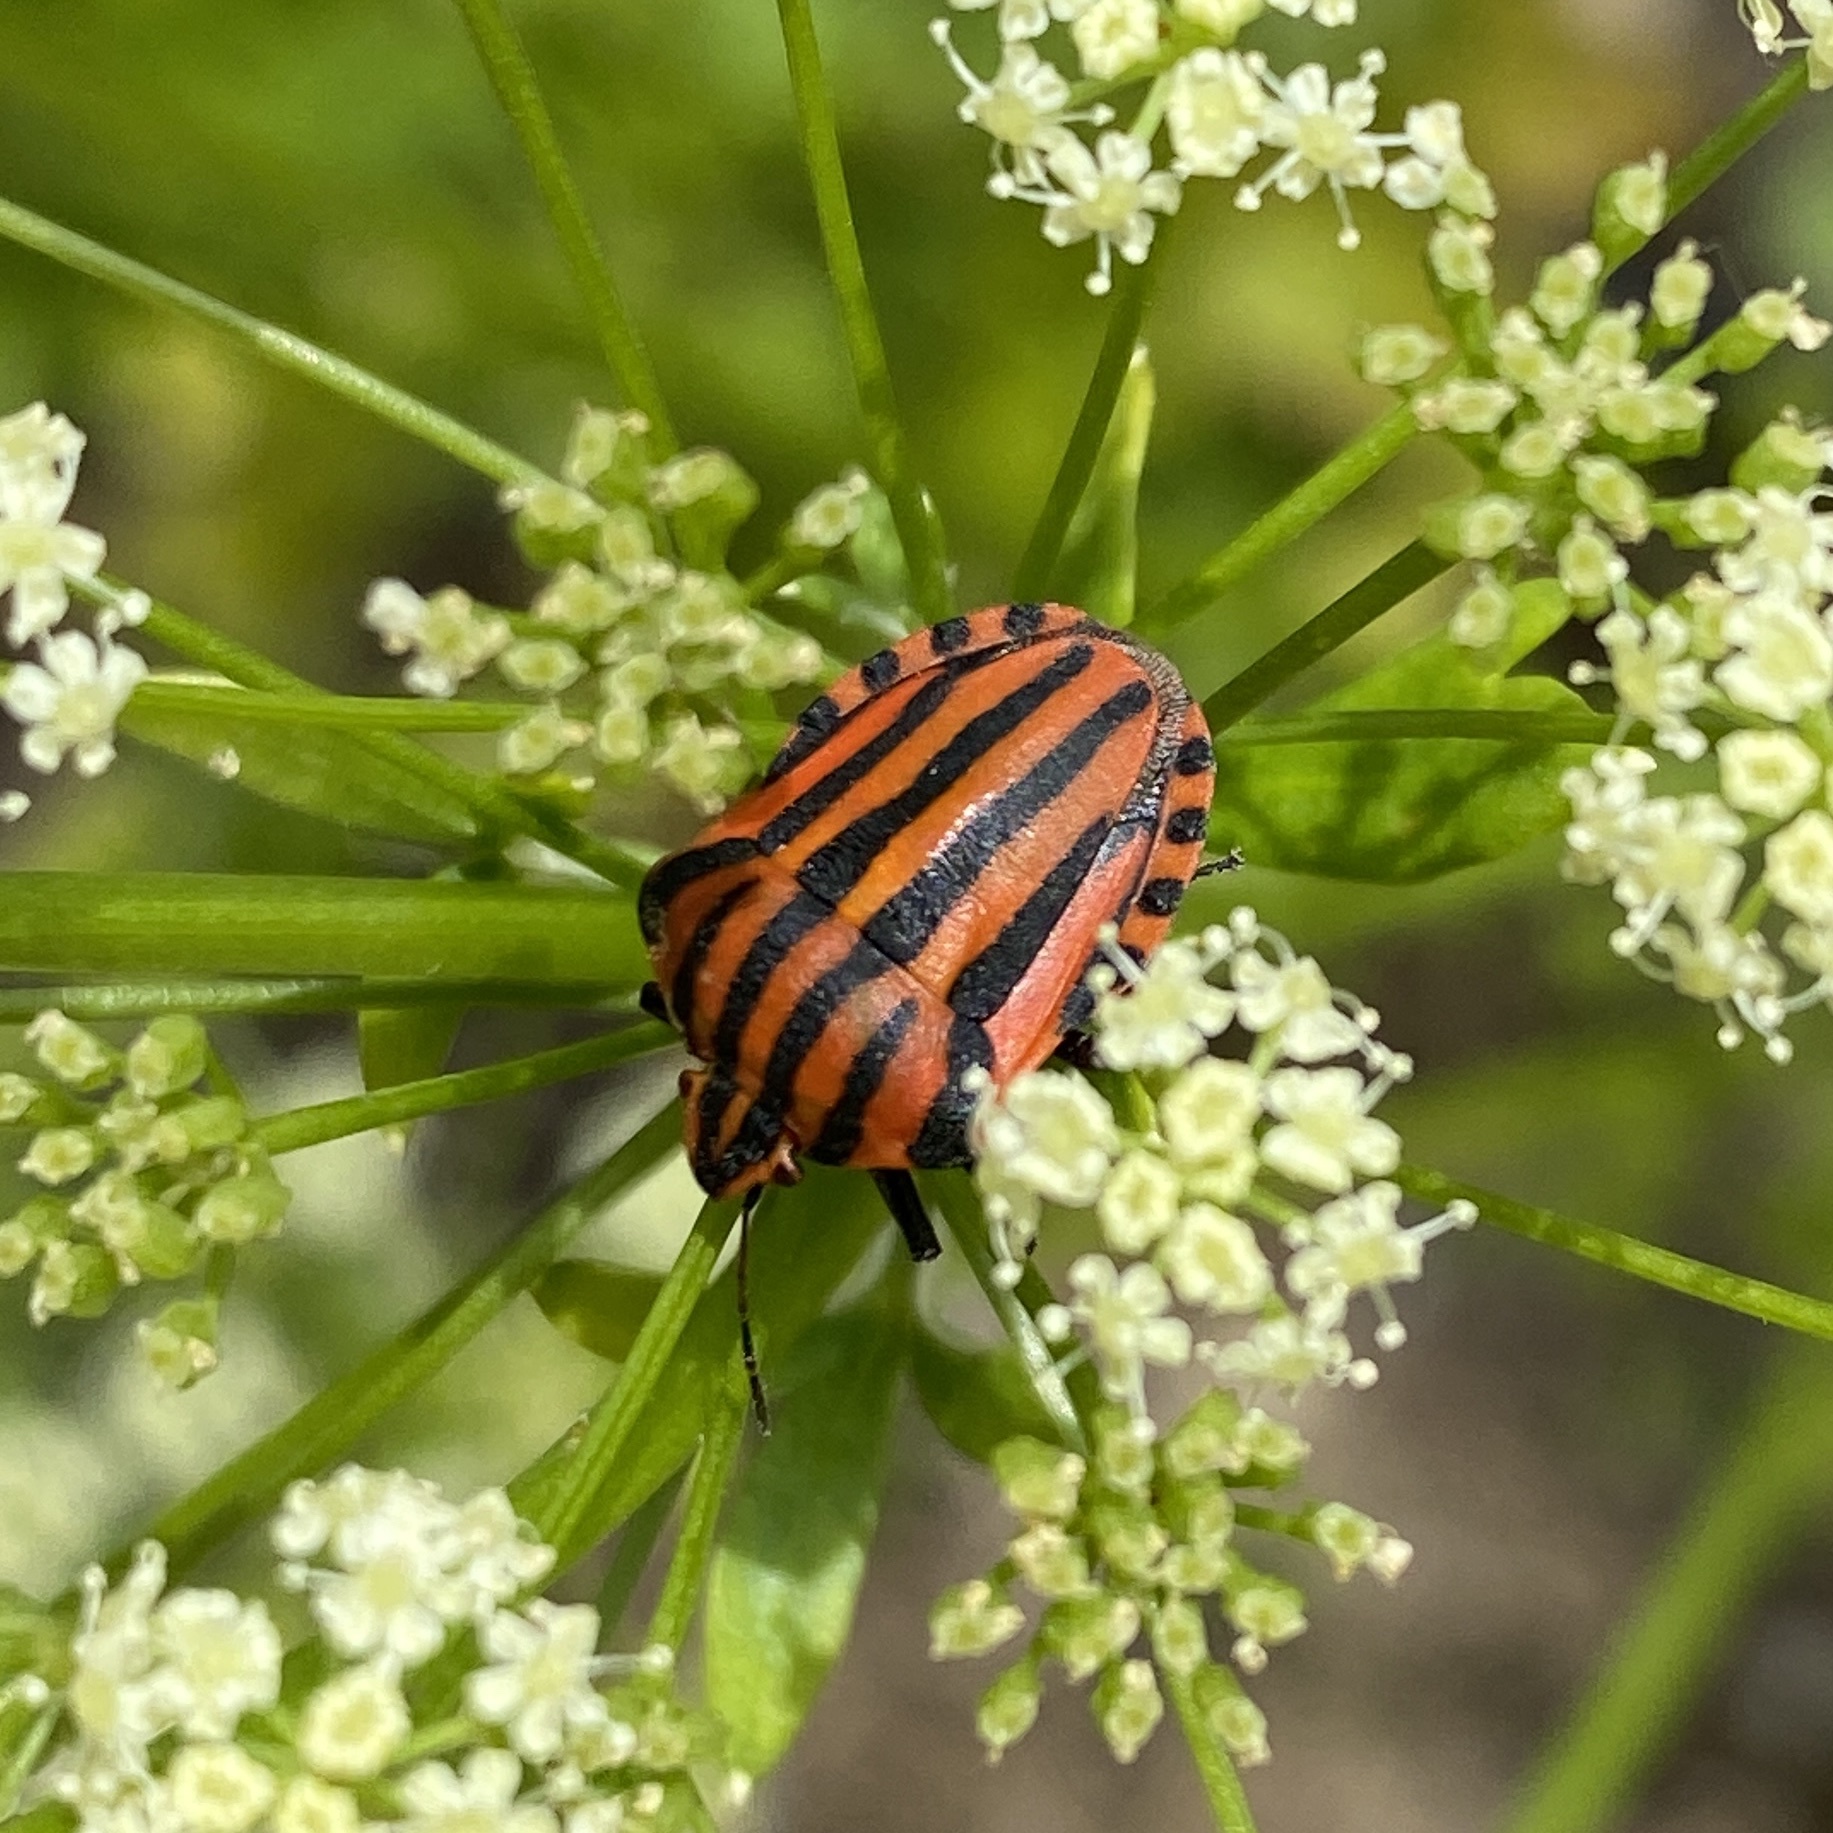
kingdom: Animalia
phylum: Arthropoda
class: Insecta
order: Hemiptera
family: Pentatomidae
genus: Graphosoma
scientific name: Graphosoma italicum
